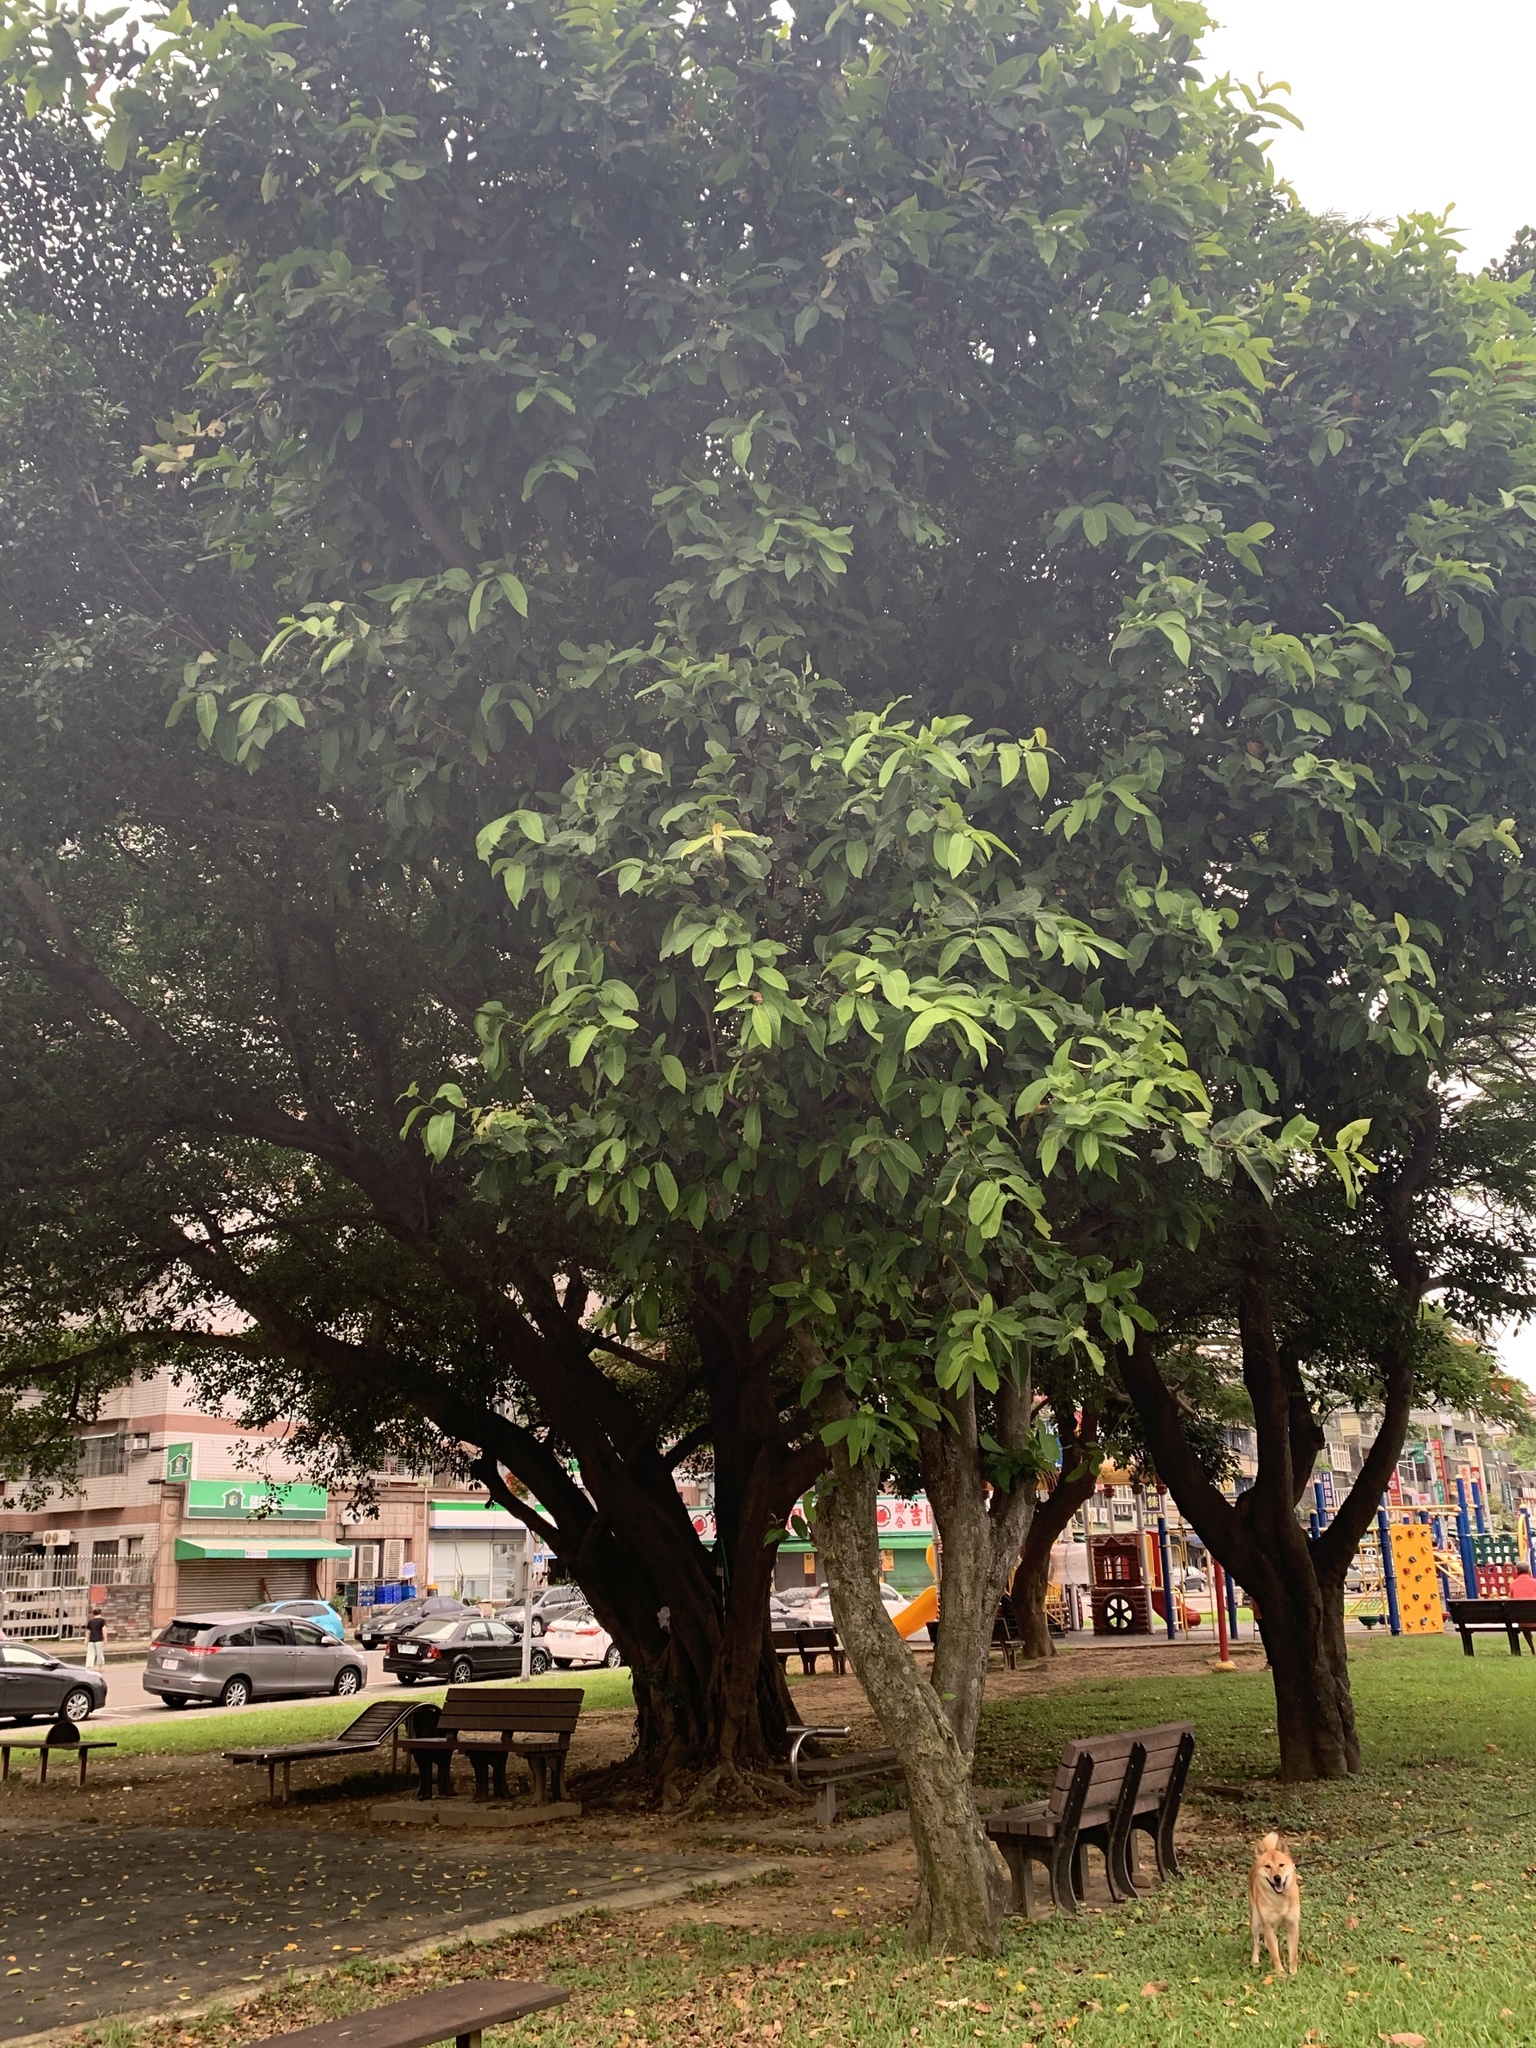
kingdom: Plantae
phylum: Tracheophyta
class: Magnoliopsida
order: Myrtales
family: Myrtaceae
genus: Syzygium
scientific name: Syzygium samarangense
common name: Semarang rose-apple
